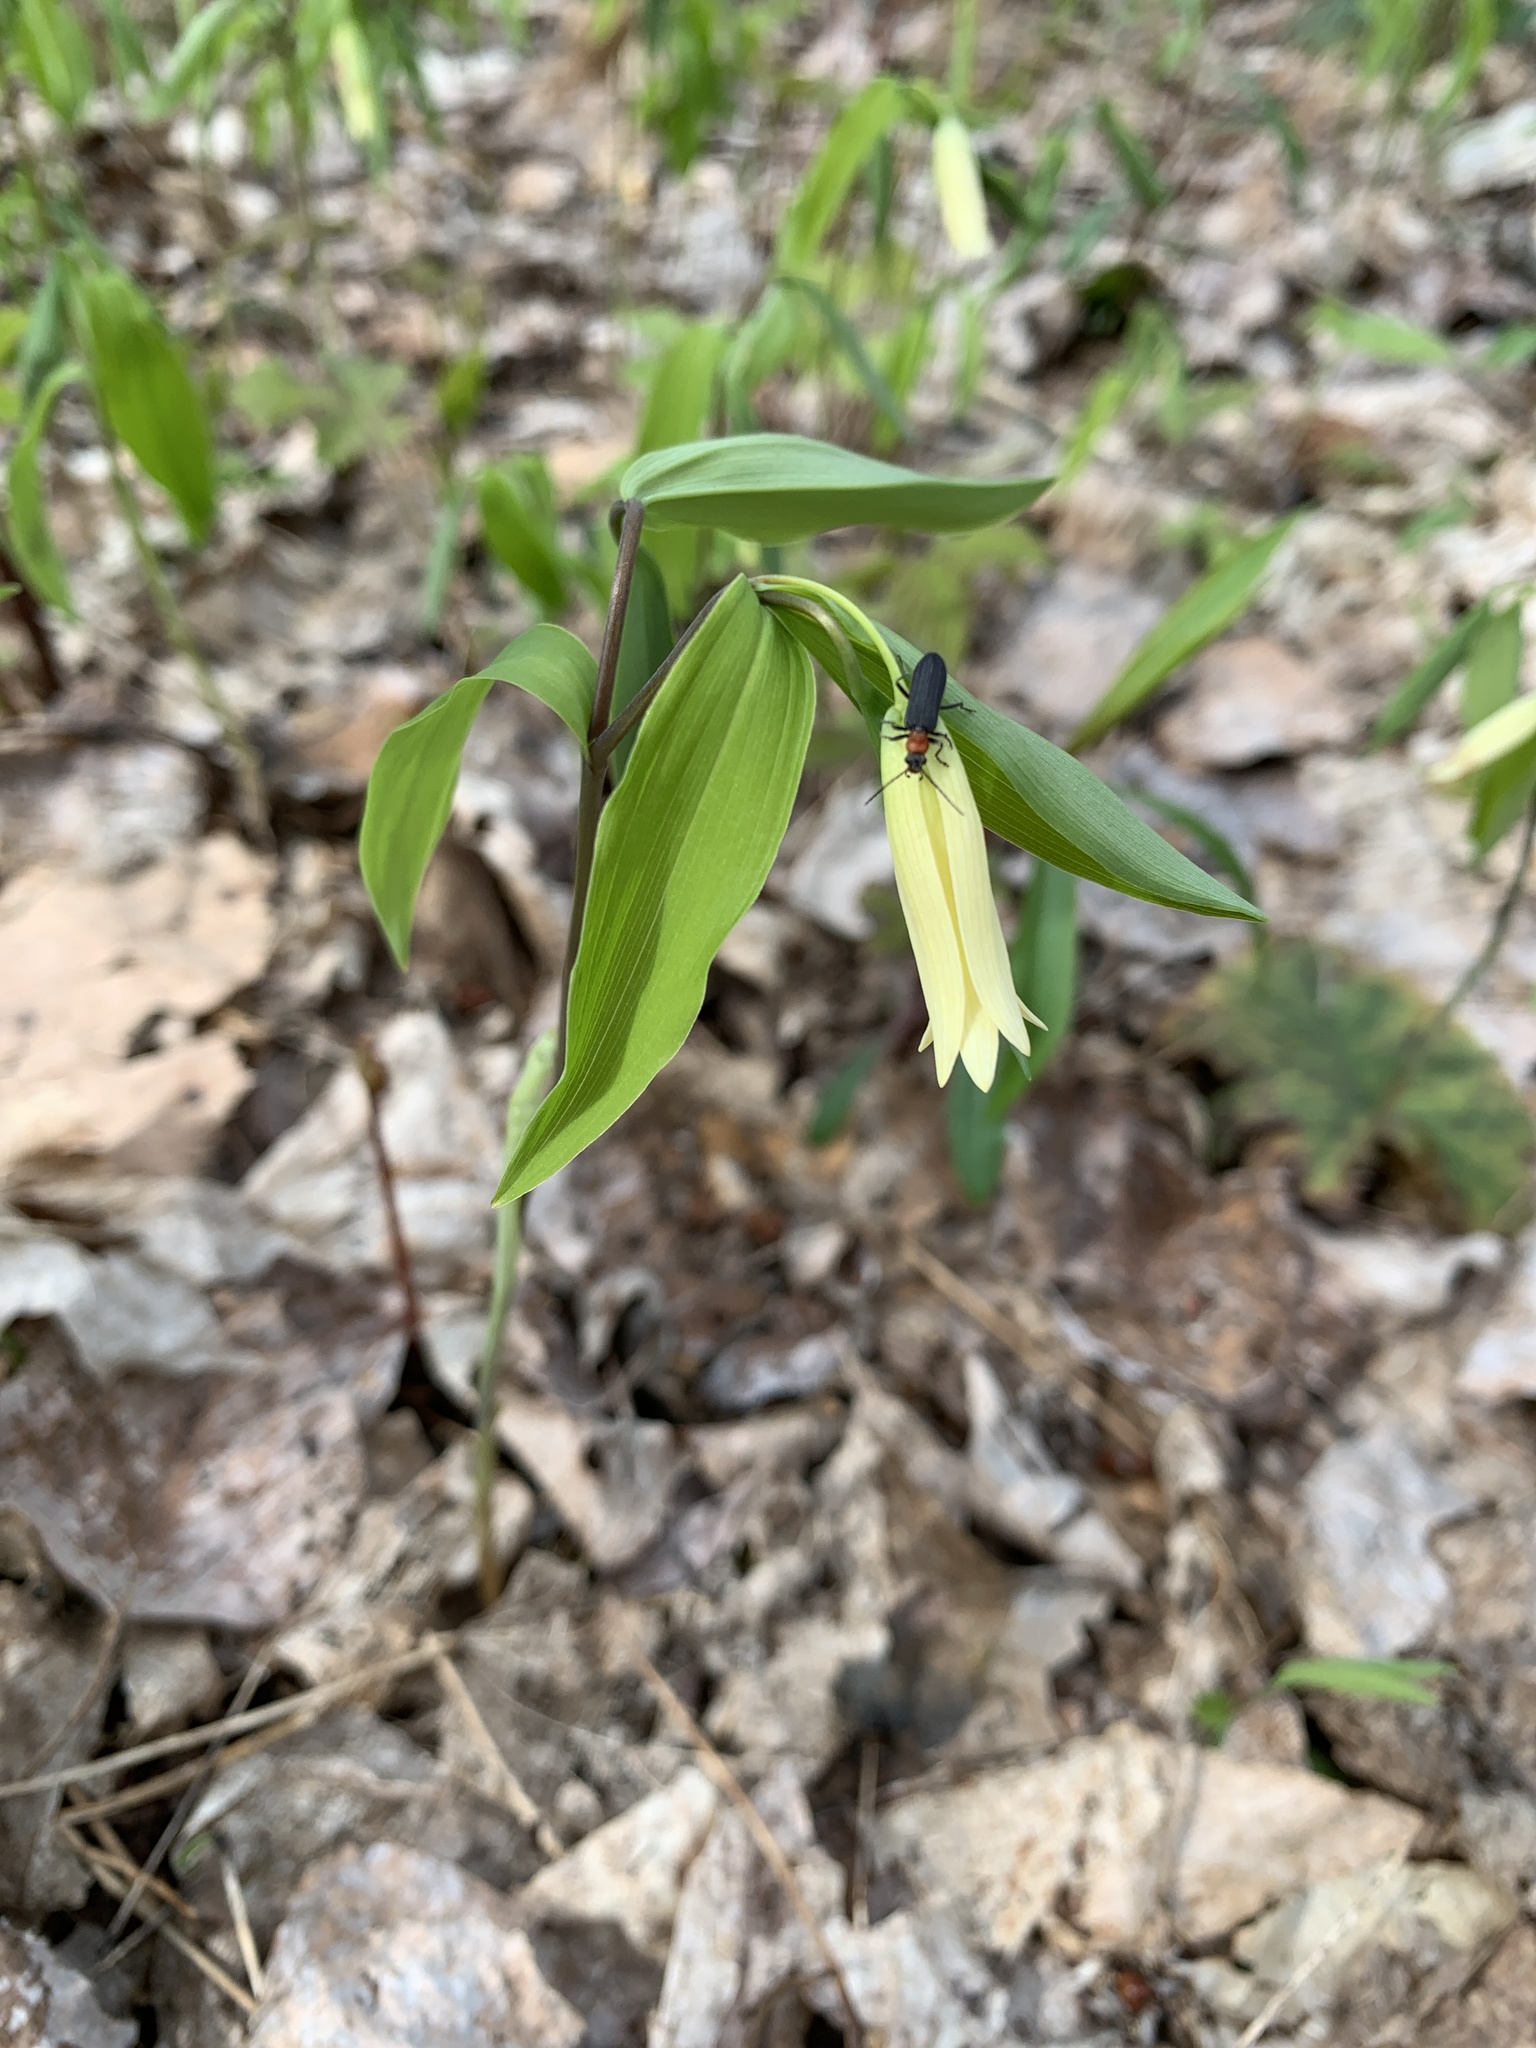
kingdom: Plantae
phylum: Tracheophyta
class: Liliopsida
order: Liliales
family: Colchicaceae
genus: Uvularia
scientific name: Uvularia sessilifolia
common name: Straw-lily
